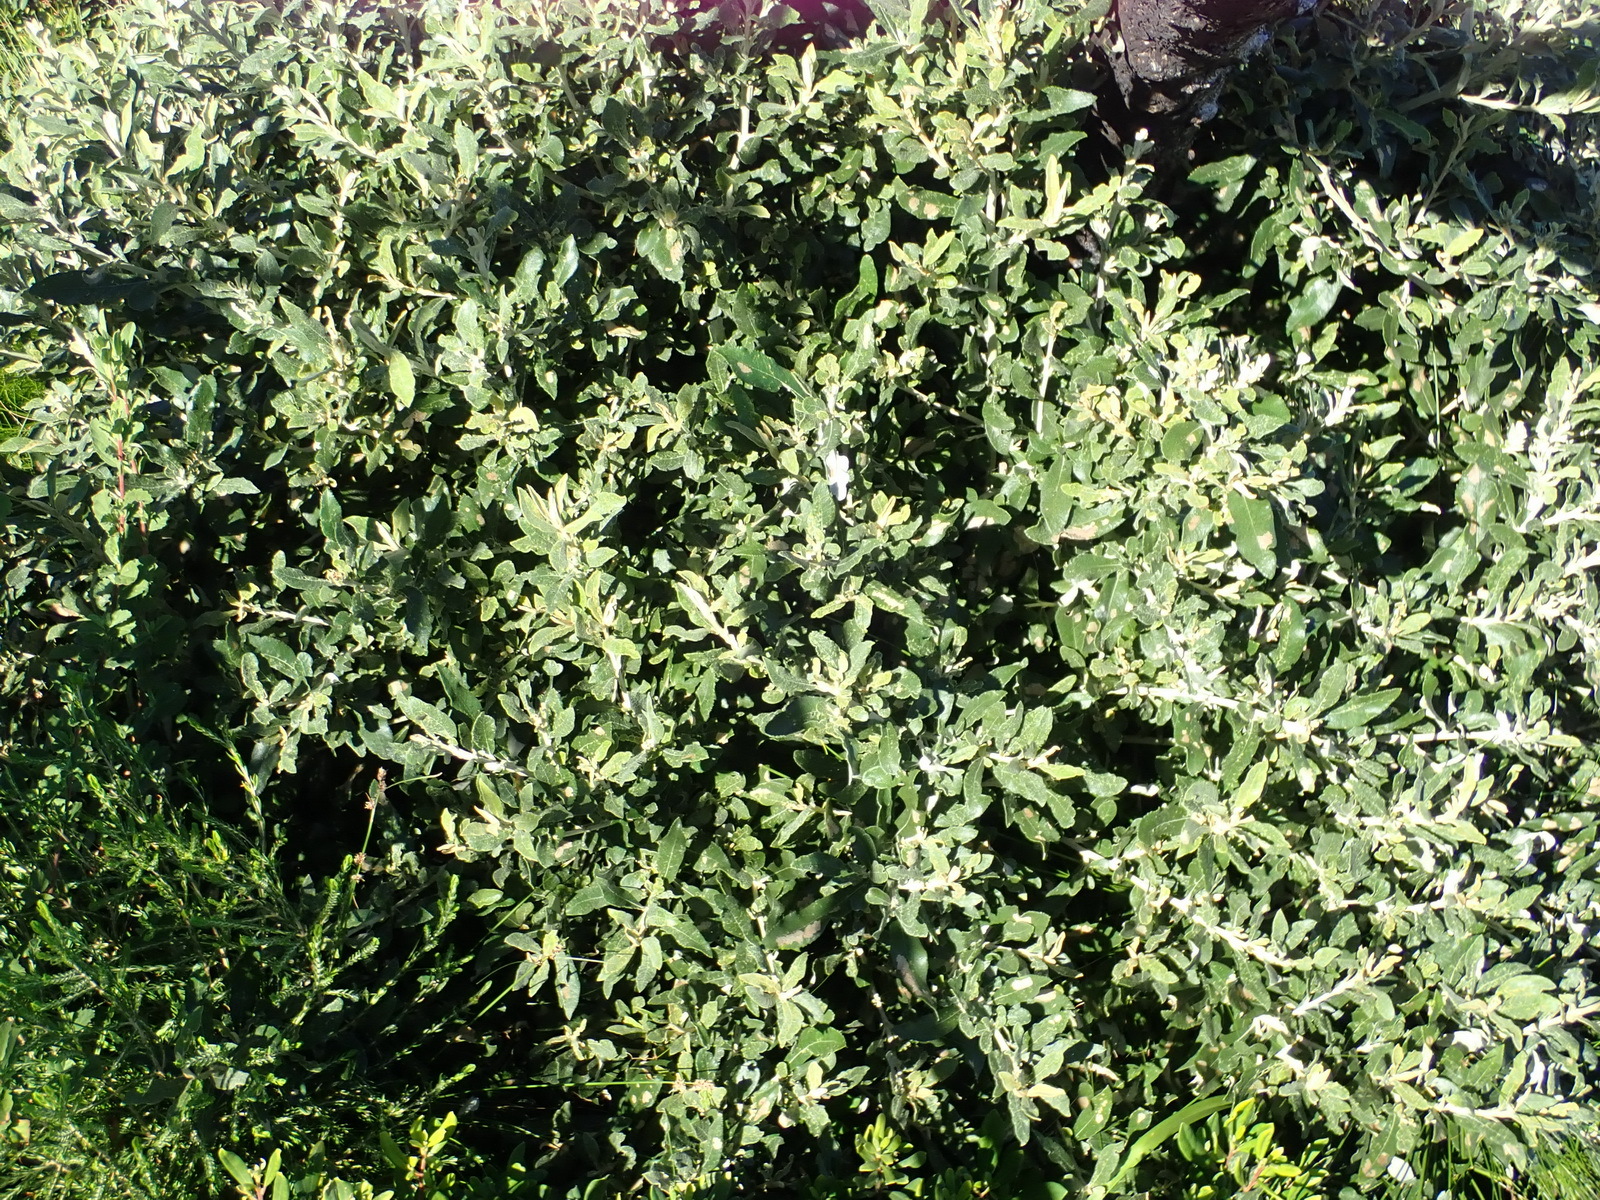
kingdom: Plantae
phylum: Tracheophyta
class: Magnoliopsida
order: Asterales
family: Asteraceae
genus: Tarchonanthus
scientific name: Tarchonanthus littoralis
